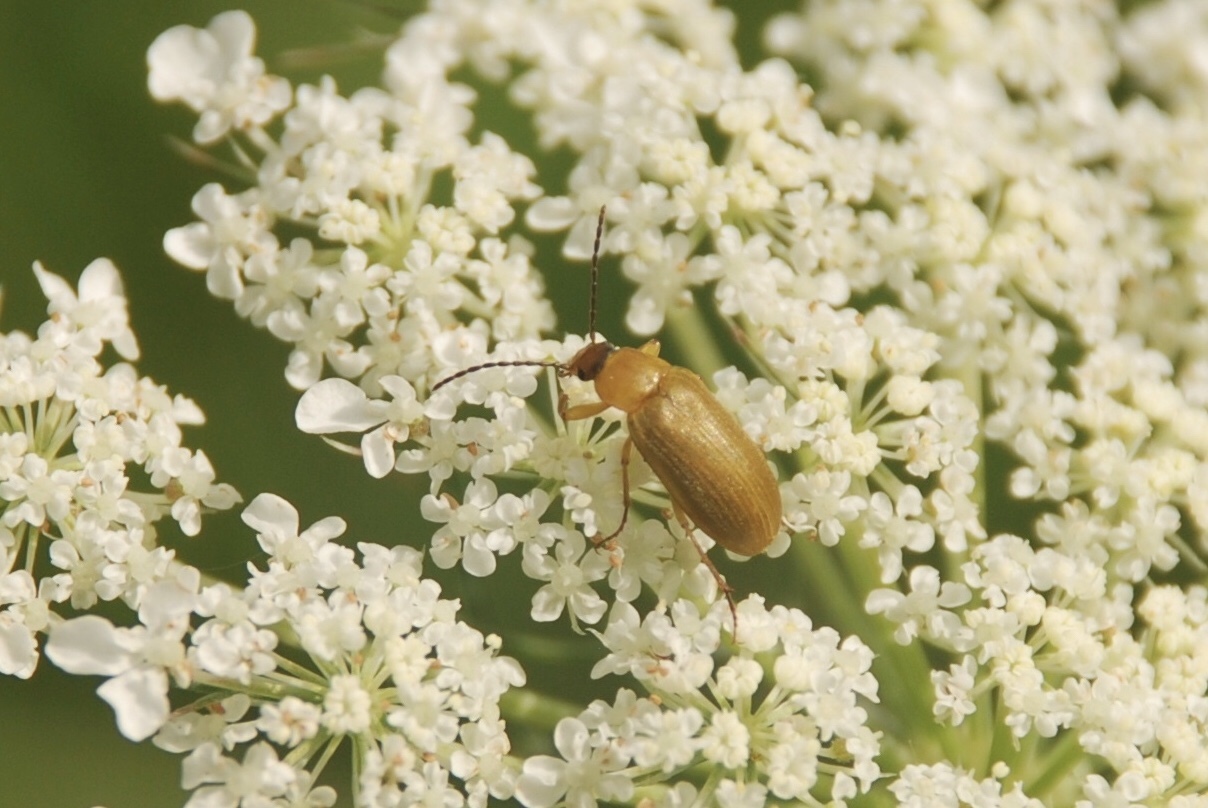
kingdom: Animalia
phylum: Arthropoda
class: Insecta
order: Coleoptera
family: Tenebrionidae
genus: Cteniopus
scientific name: Cteniopus sulphureus
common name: Sulphur beetle
